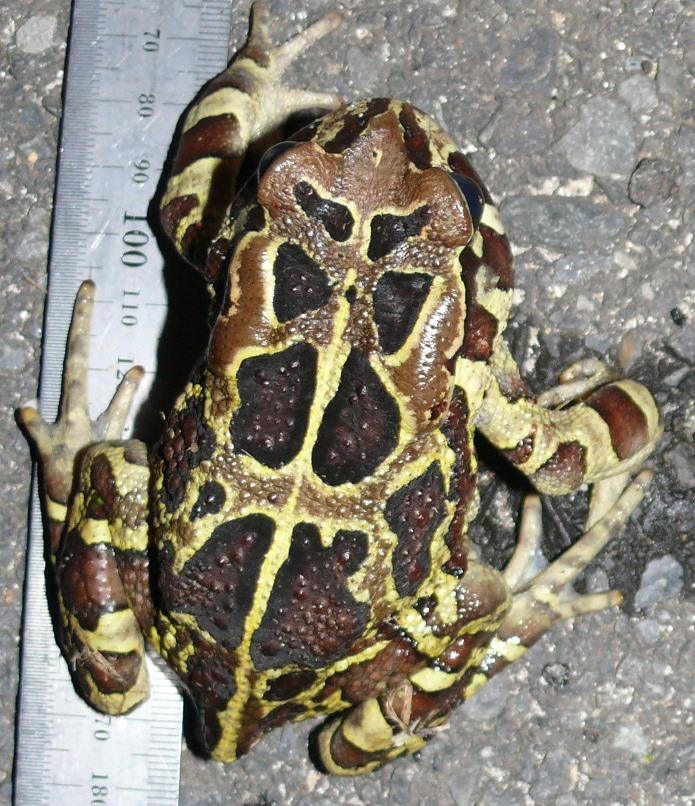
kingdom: Animalia
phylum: Chordata
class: Amphibia
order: Anura
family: Bufonidae
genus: Sclerophrys
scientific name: Sclerophrys pantherina
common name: Panther toad
